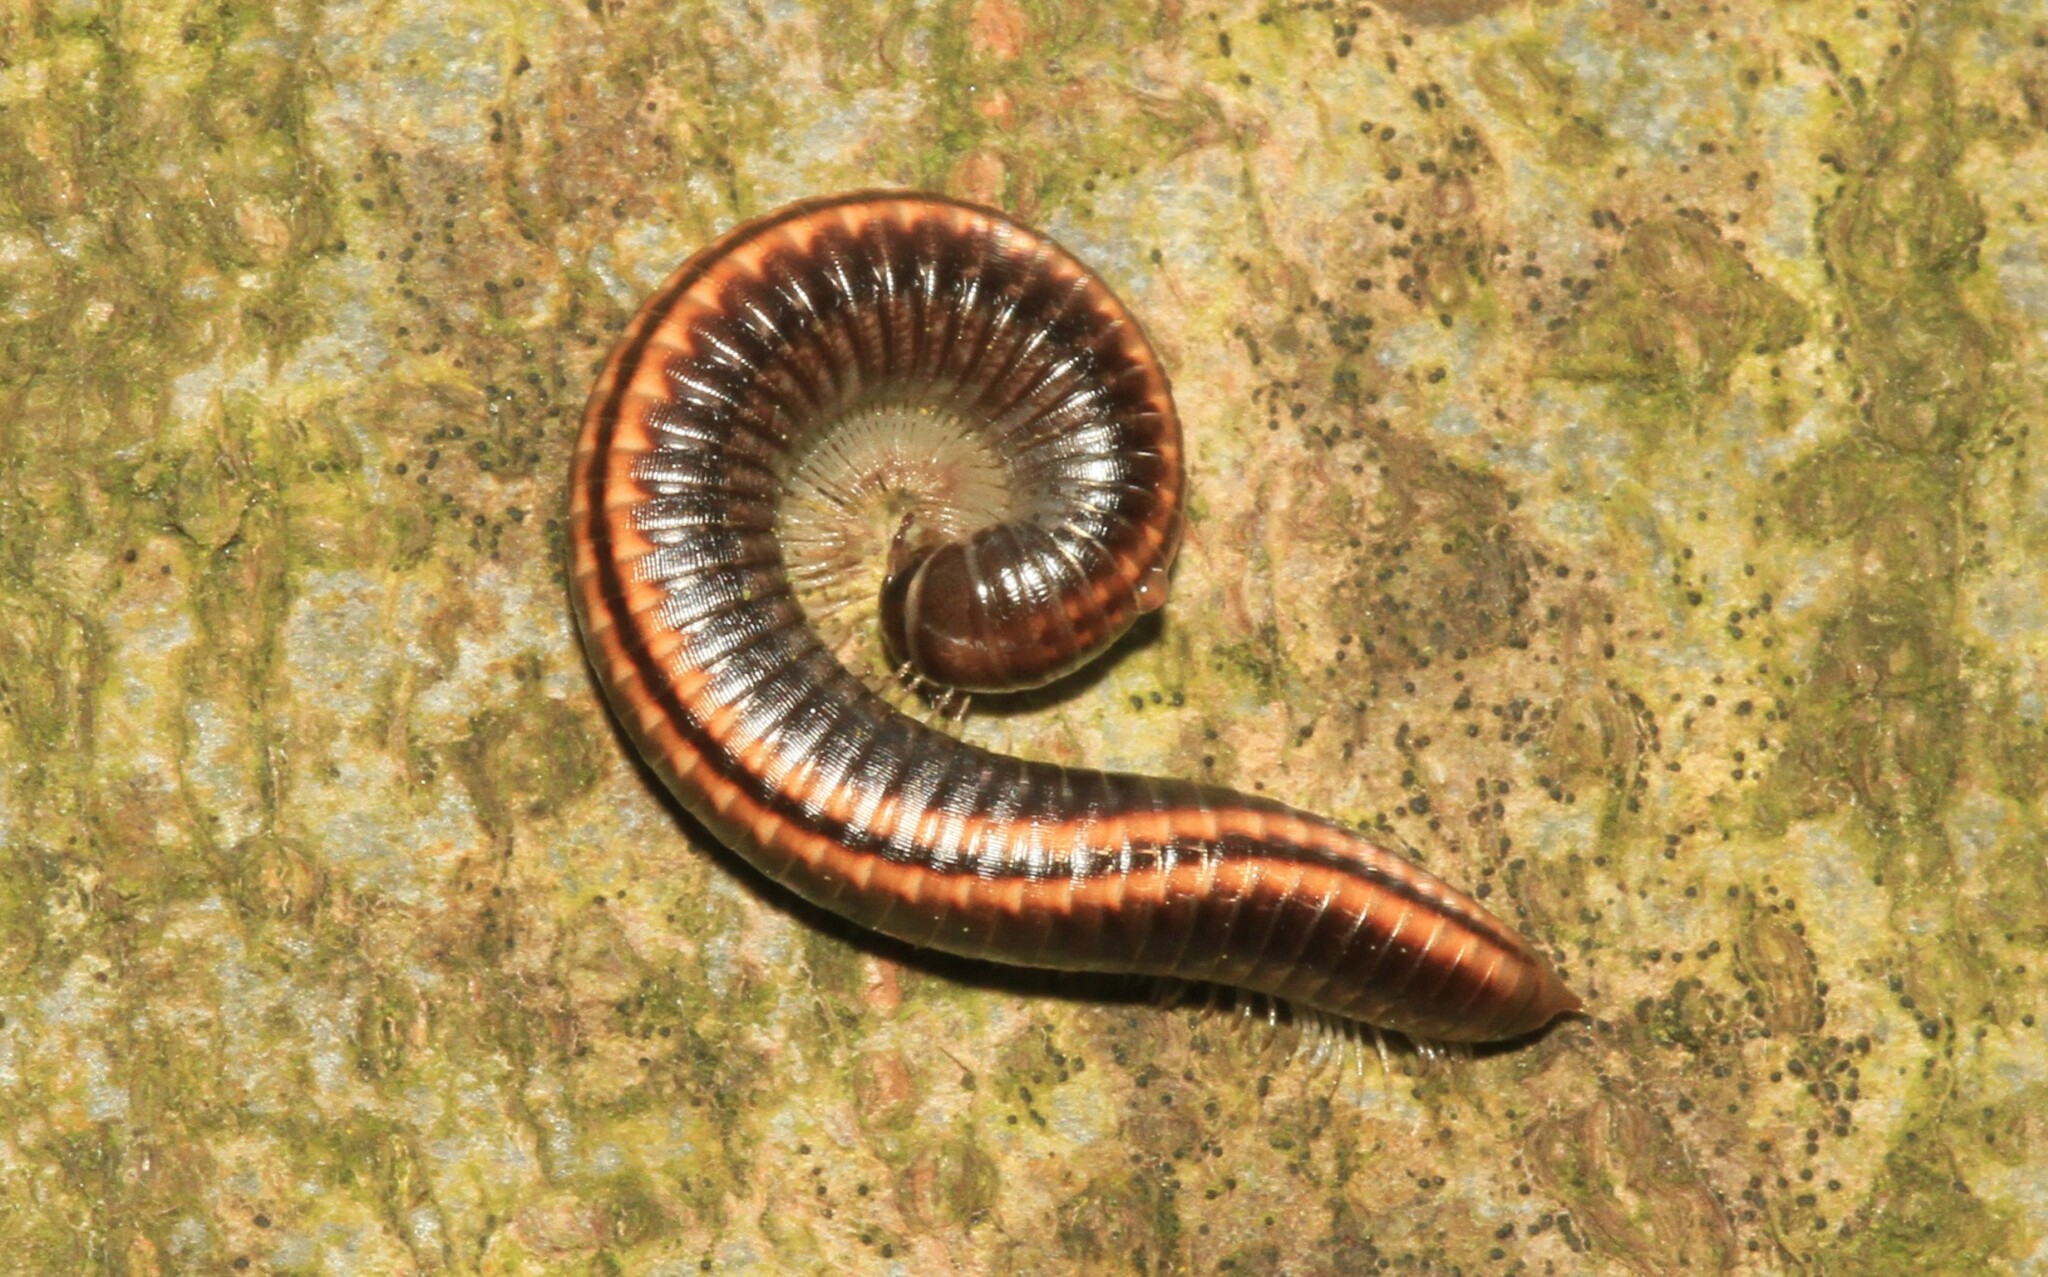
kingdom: Animalia
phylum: Arthropoda
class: Diplopoda
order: Julida
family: Julidae
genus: Ommatoiulus
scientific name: Ommatoiulus sabulosus
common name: Striped millipede
